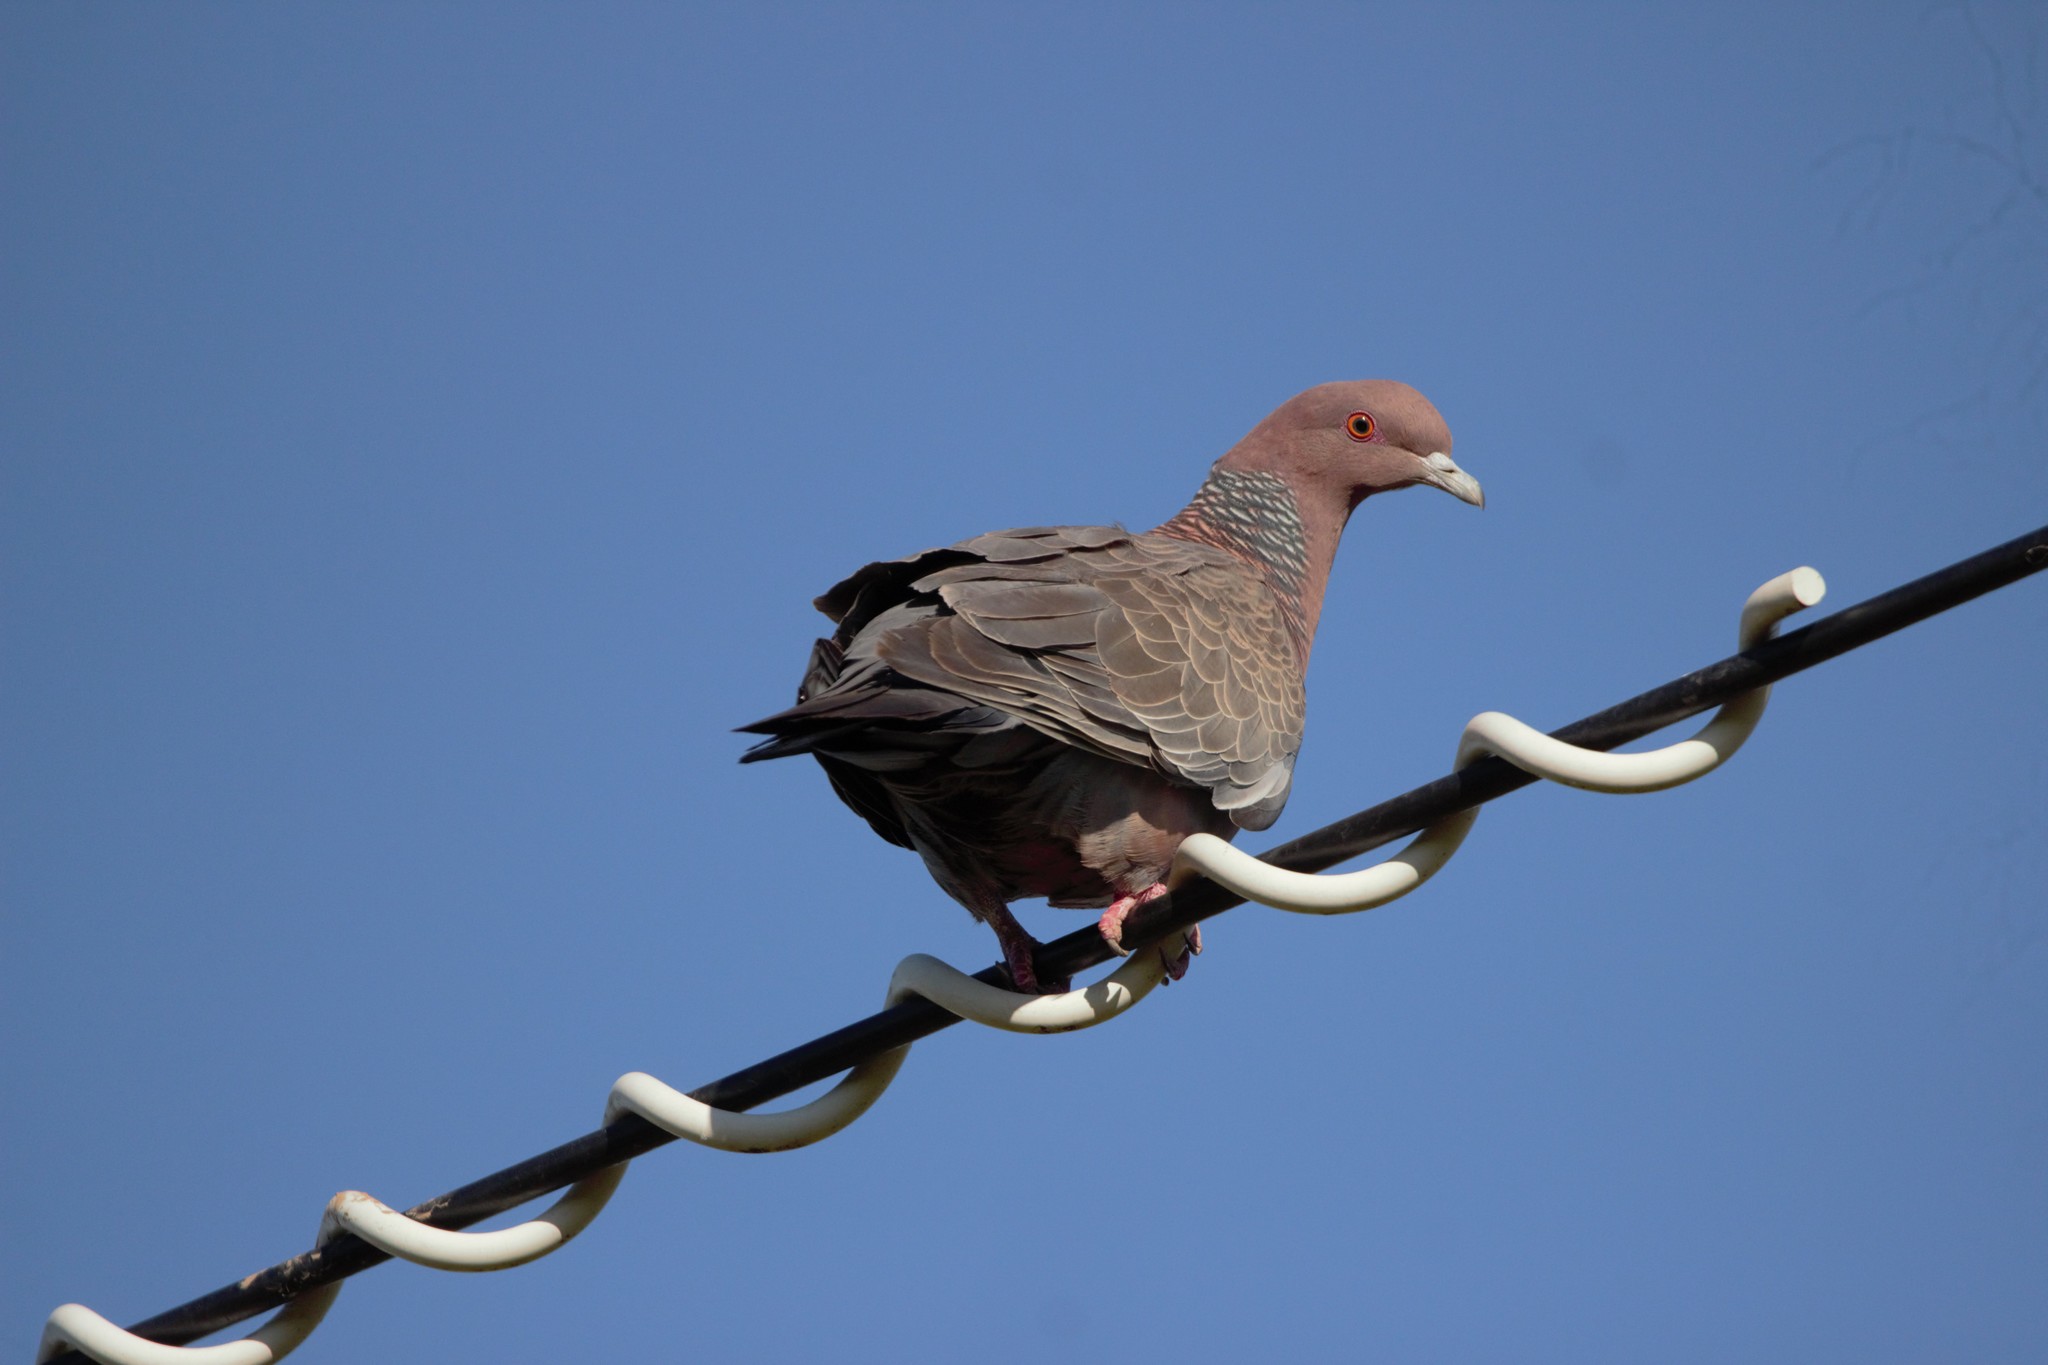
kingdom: Animalia
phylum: Chordata
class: Aves
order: Columbiformes
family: Columbidae
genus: Patagioenas
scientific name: Patagioenas picazuro
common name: Picazuro pigeon
